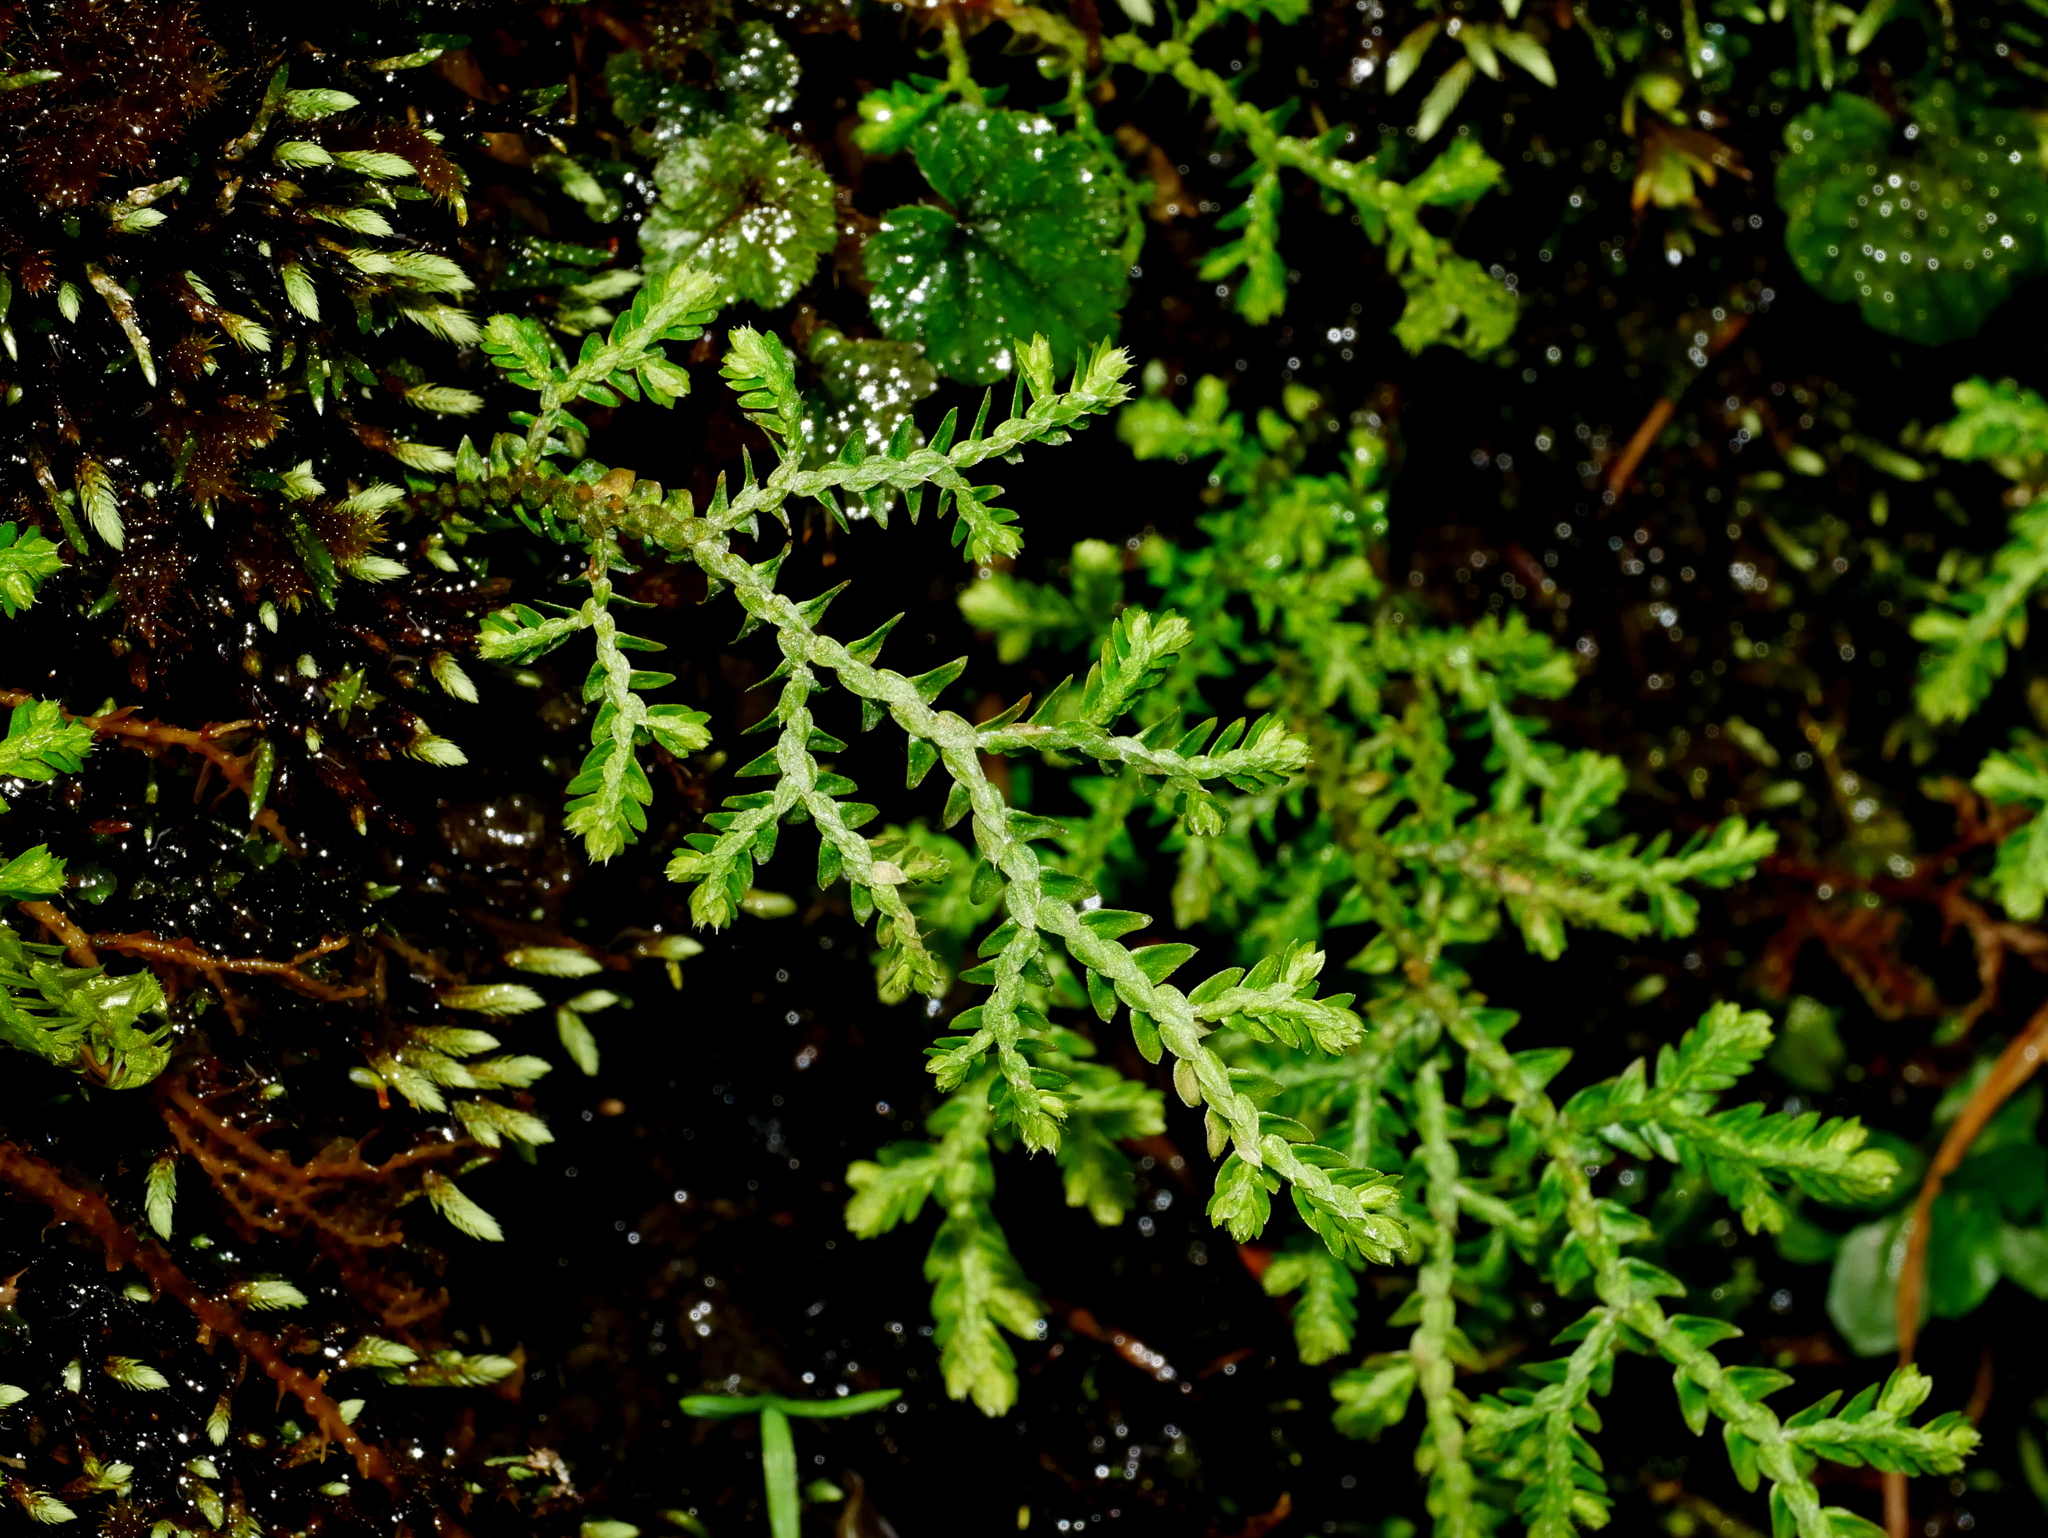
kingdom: Plantae
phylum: Tracheophyta
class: Lycopodiopsida
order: Selaginellales
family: Selaginellaceae
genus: Selaginella
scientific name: Selaginella heterostachys
